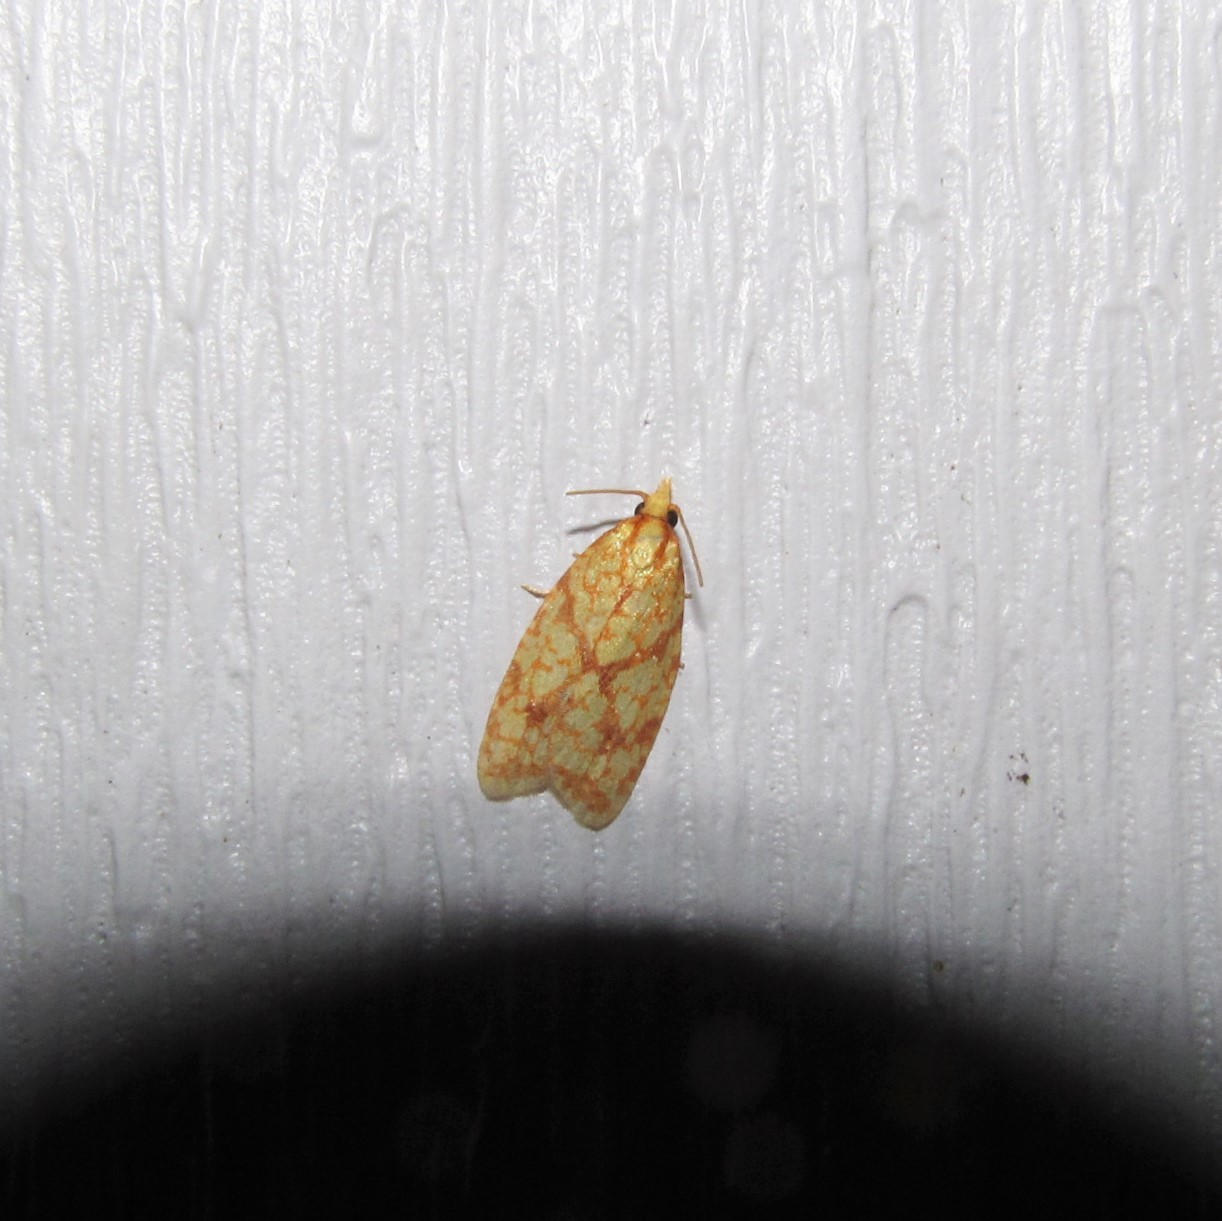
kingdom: Animalia
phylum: Arthropoda
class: Insecta
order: Lepidoptera
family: Tortricidae
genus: Sparganothis
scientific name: Sparganothis sulfureana
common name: Sparganothis fruitworm moth
